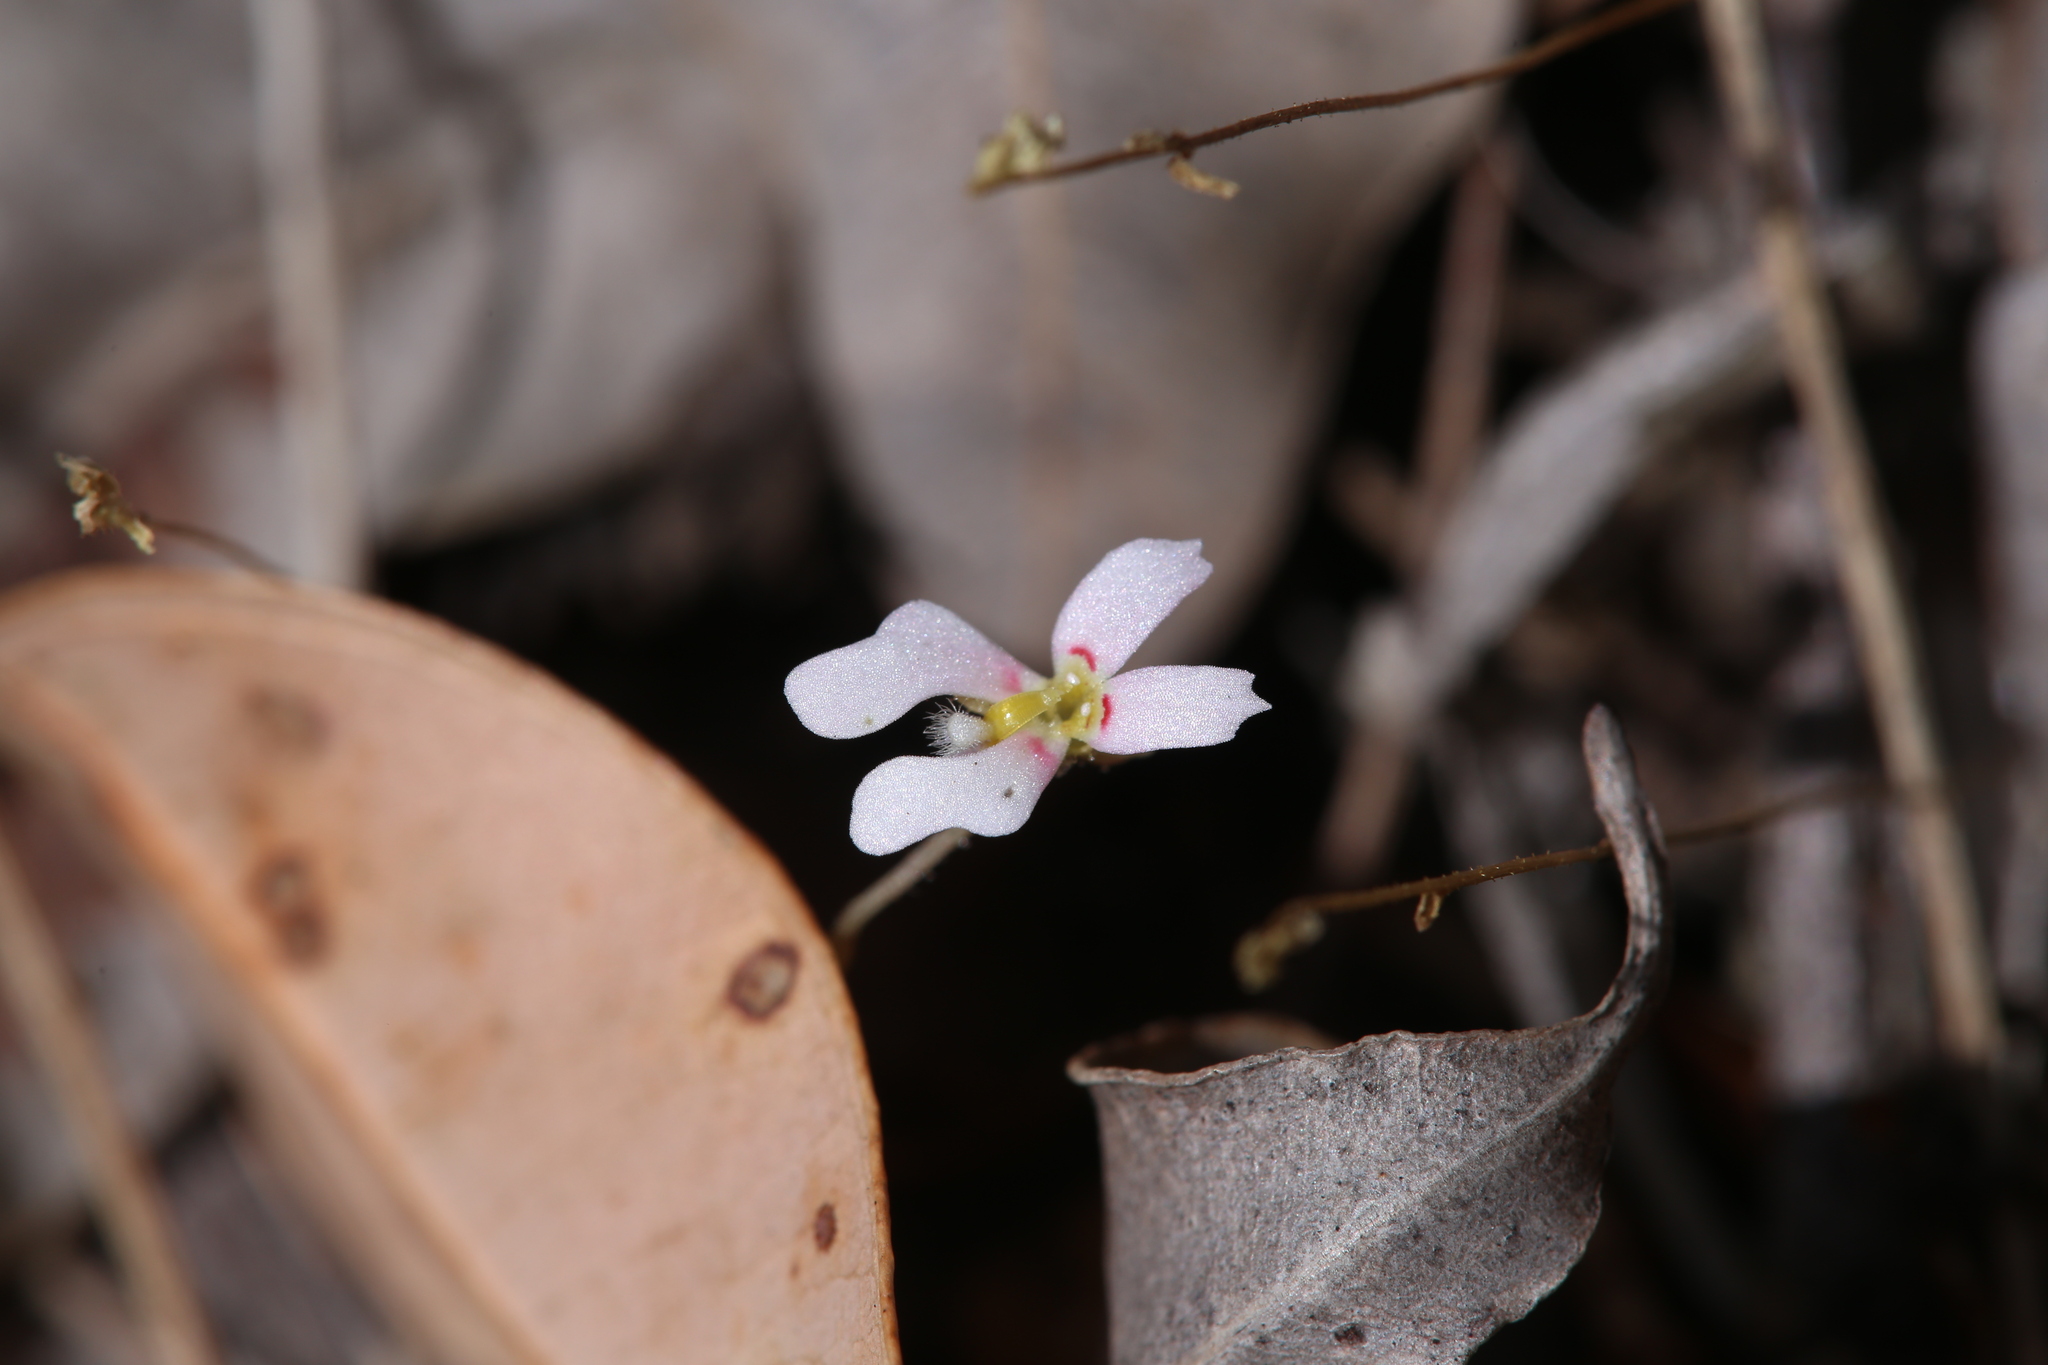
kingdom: Plantae
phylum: Tracheophyta
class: Magnoliopsida
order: Asterales
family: Stylidiaceae
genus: Stylidium
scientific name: Stylidium androsaceum
